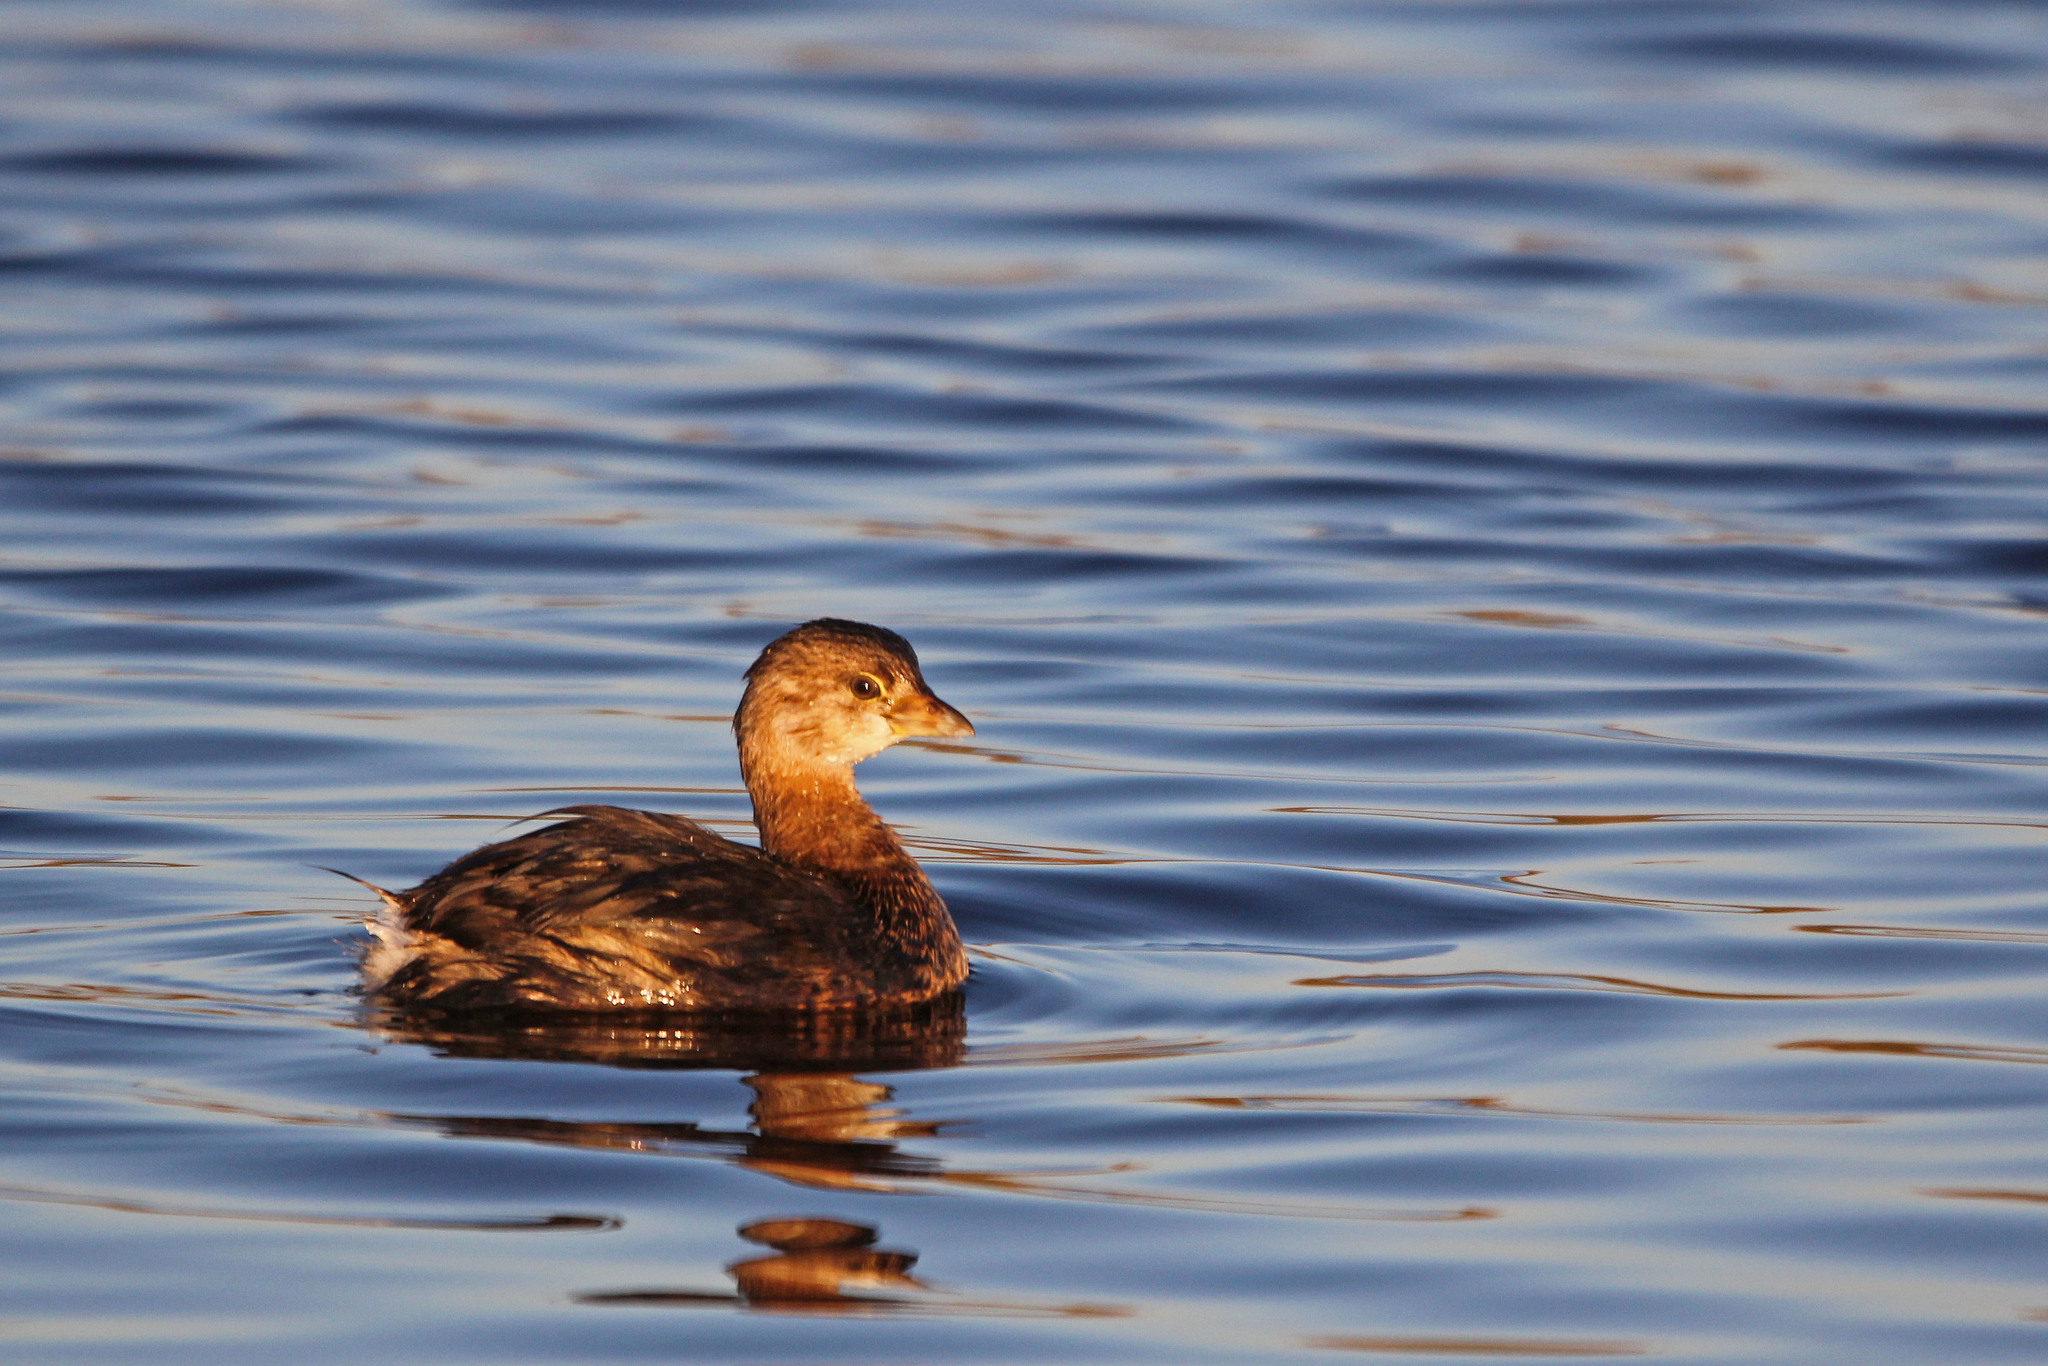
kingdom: Animalia
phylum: Chordata
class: Aves
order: Podicipediformes
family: Podicipedidae
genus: Podilymbus
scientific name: Podilymbus podiceps
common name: Pied-billed grebe
